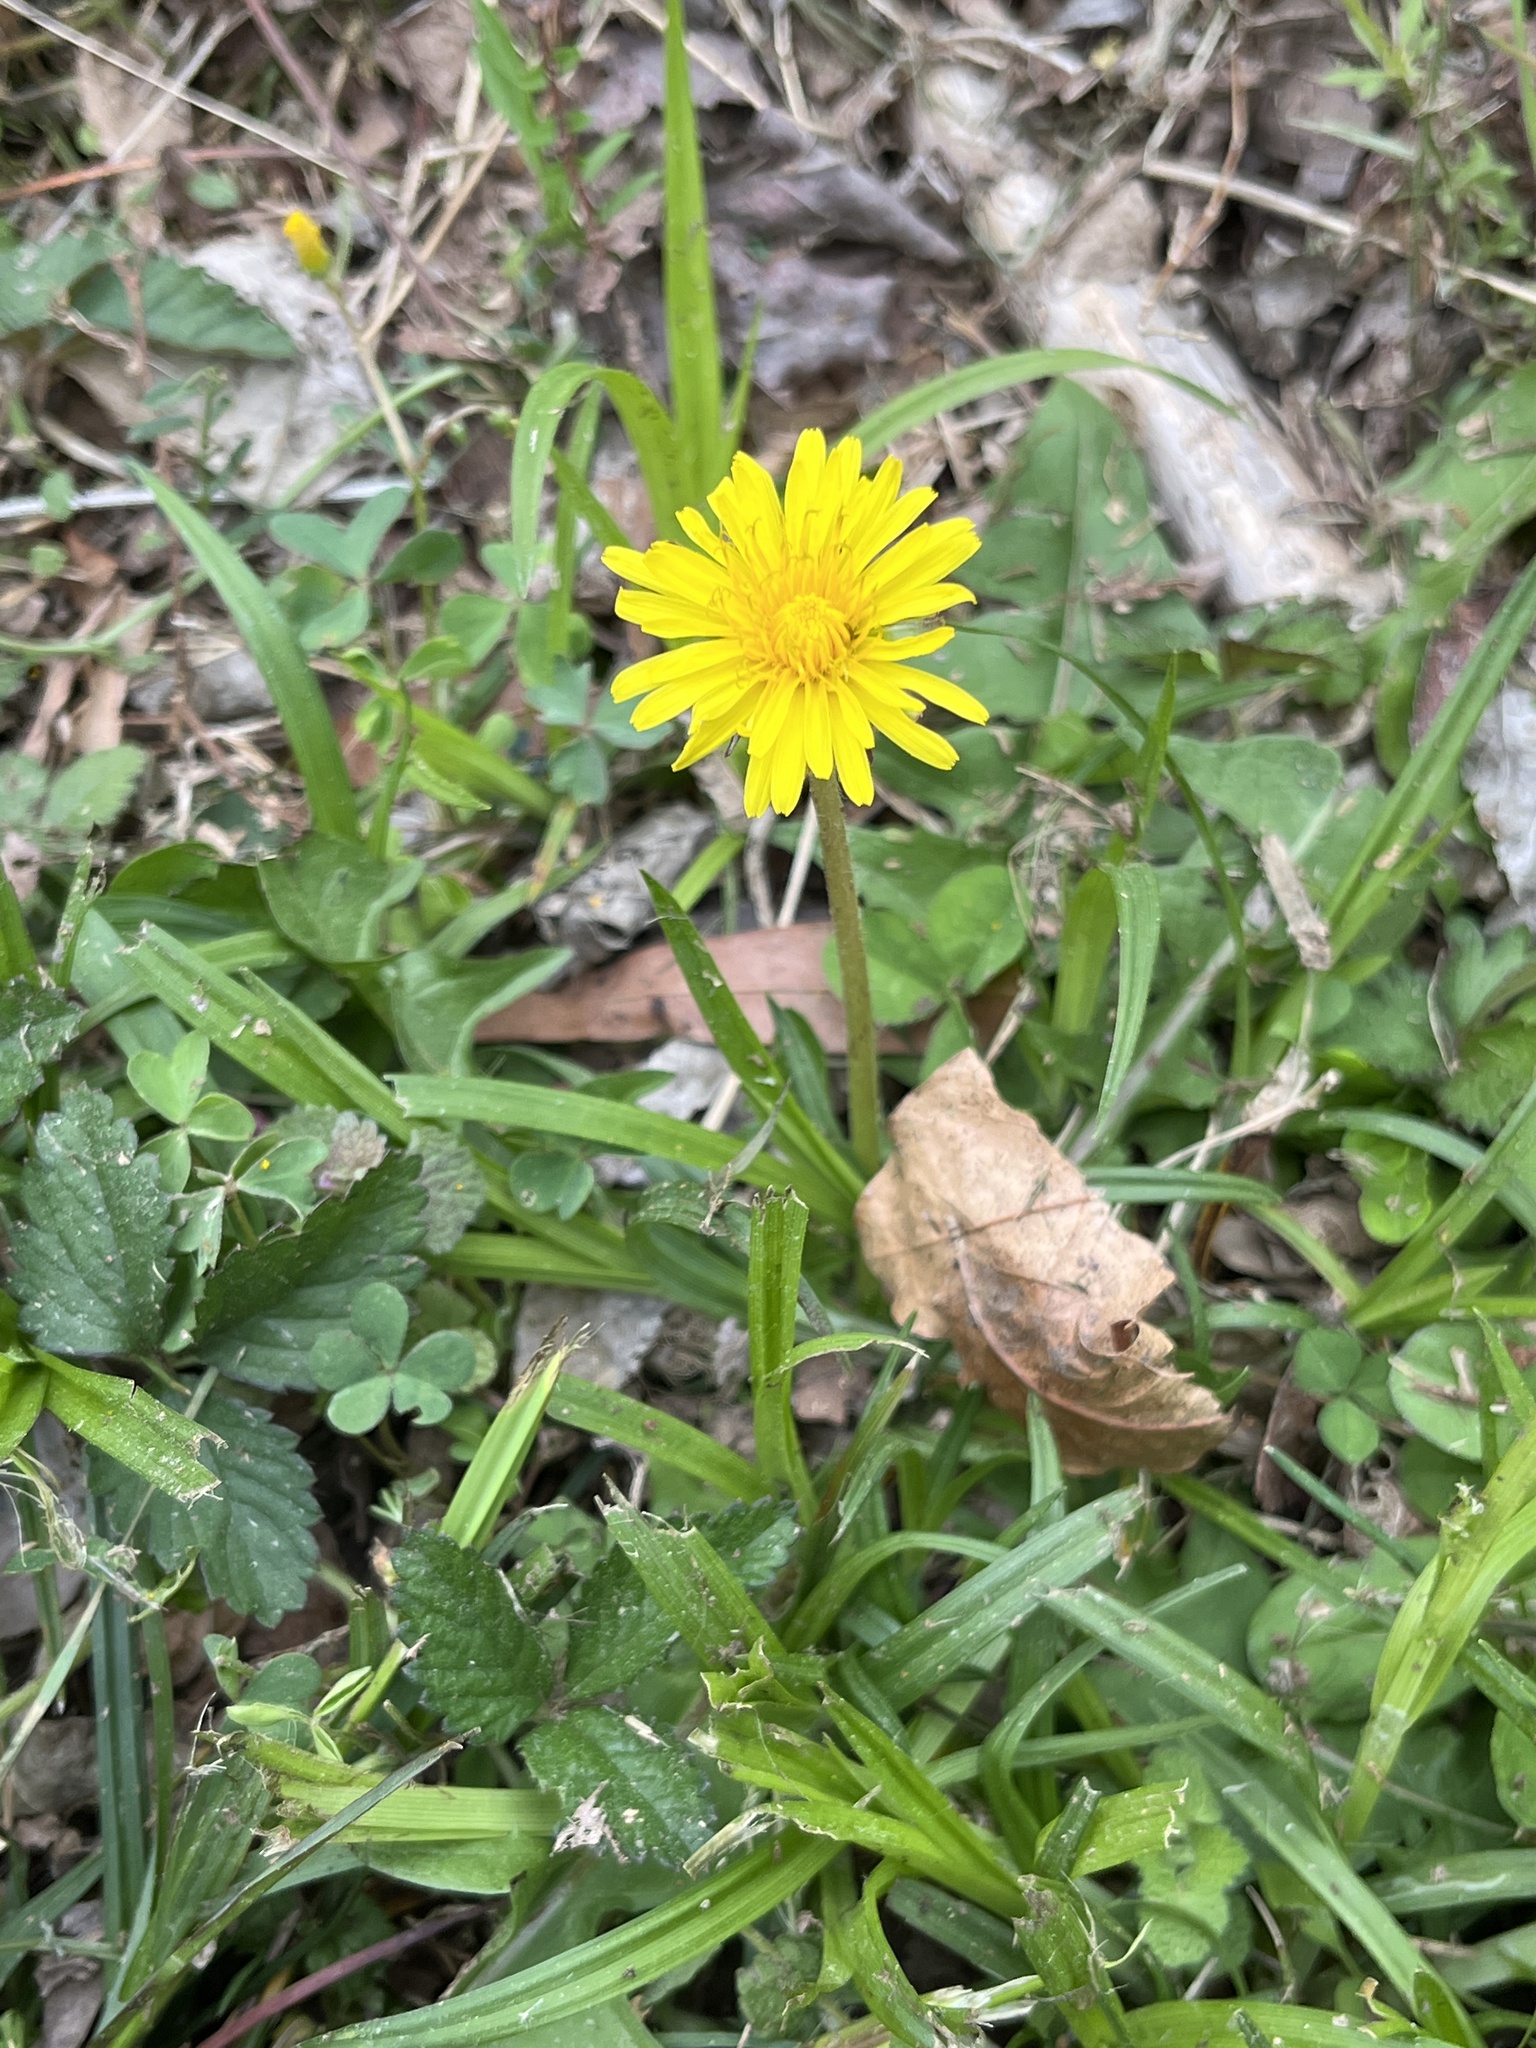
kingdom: Plantae
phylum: Tracheophyta
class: Magnoliopsida
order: Asterales
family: Asteraceae
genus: Taraxacum
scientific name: Taraxacum
